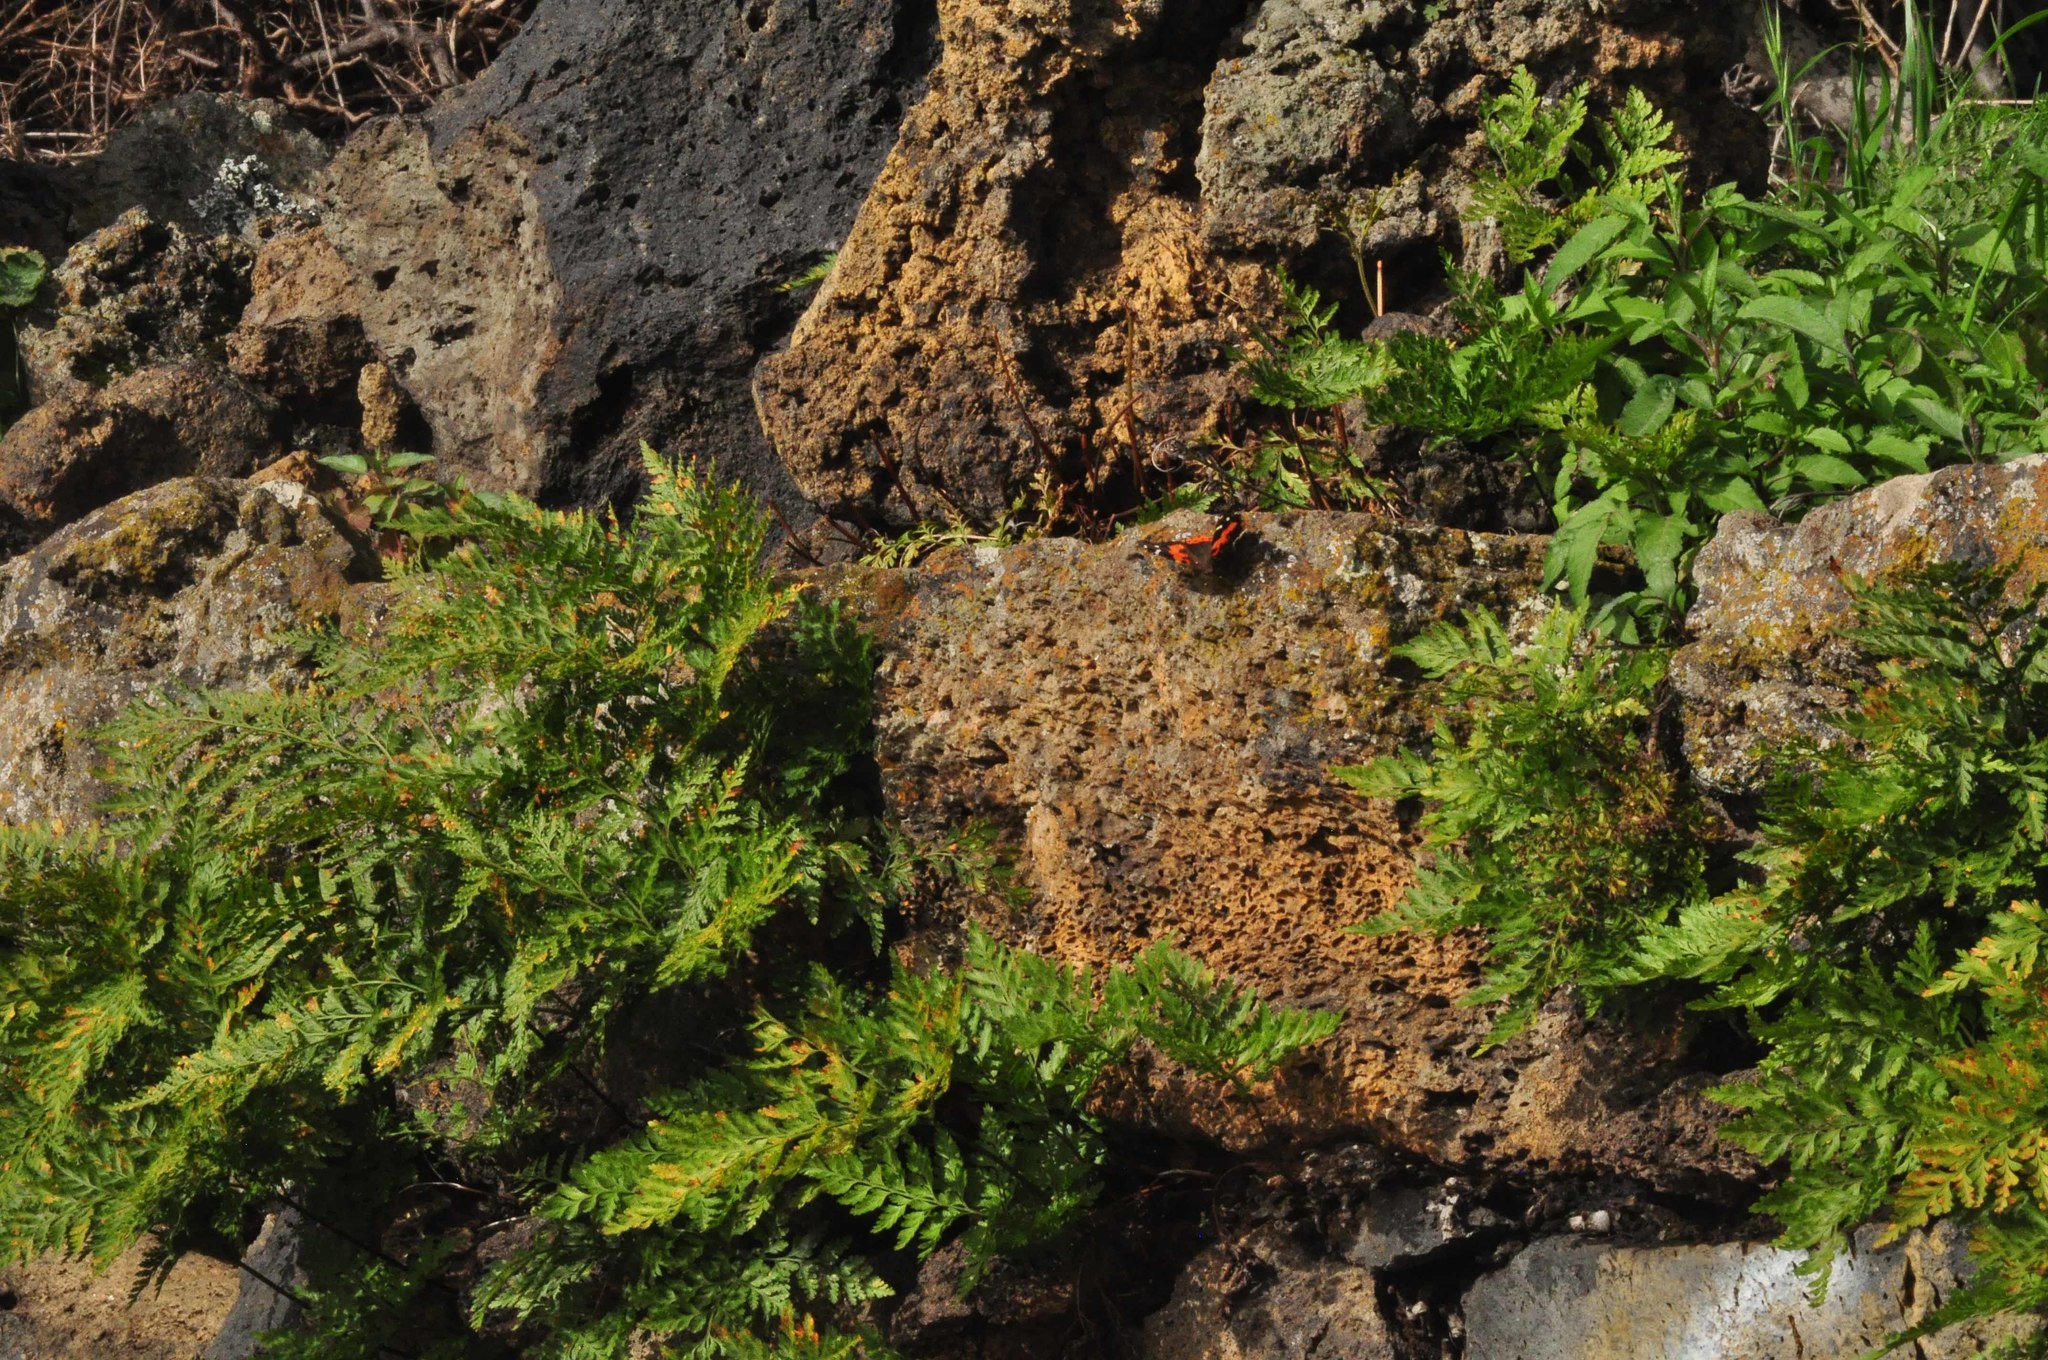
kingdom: Animalia
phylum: Arthropoda
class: Insecta
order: Lepidoptera
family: Nymphalidae
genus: Vanessa
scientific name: Vanessa vulcania
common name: Canary red admiral
